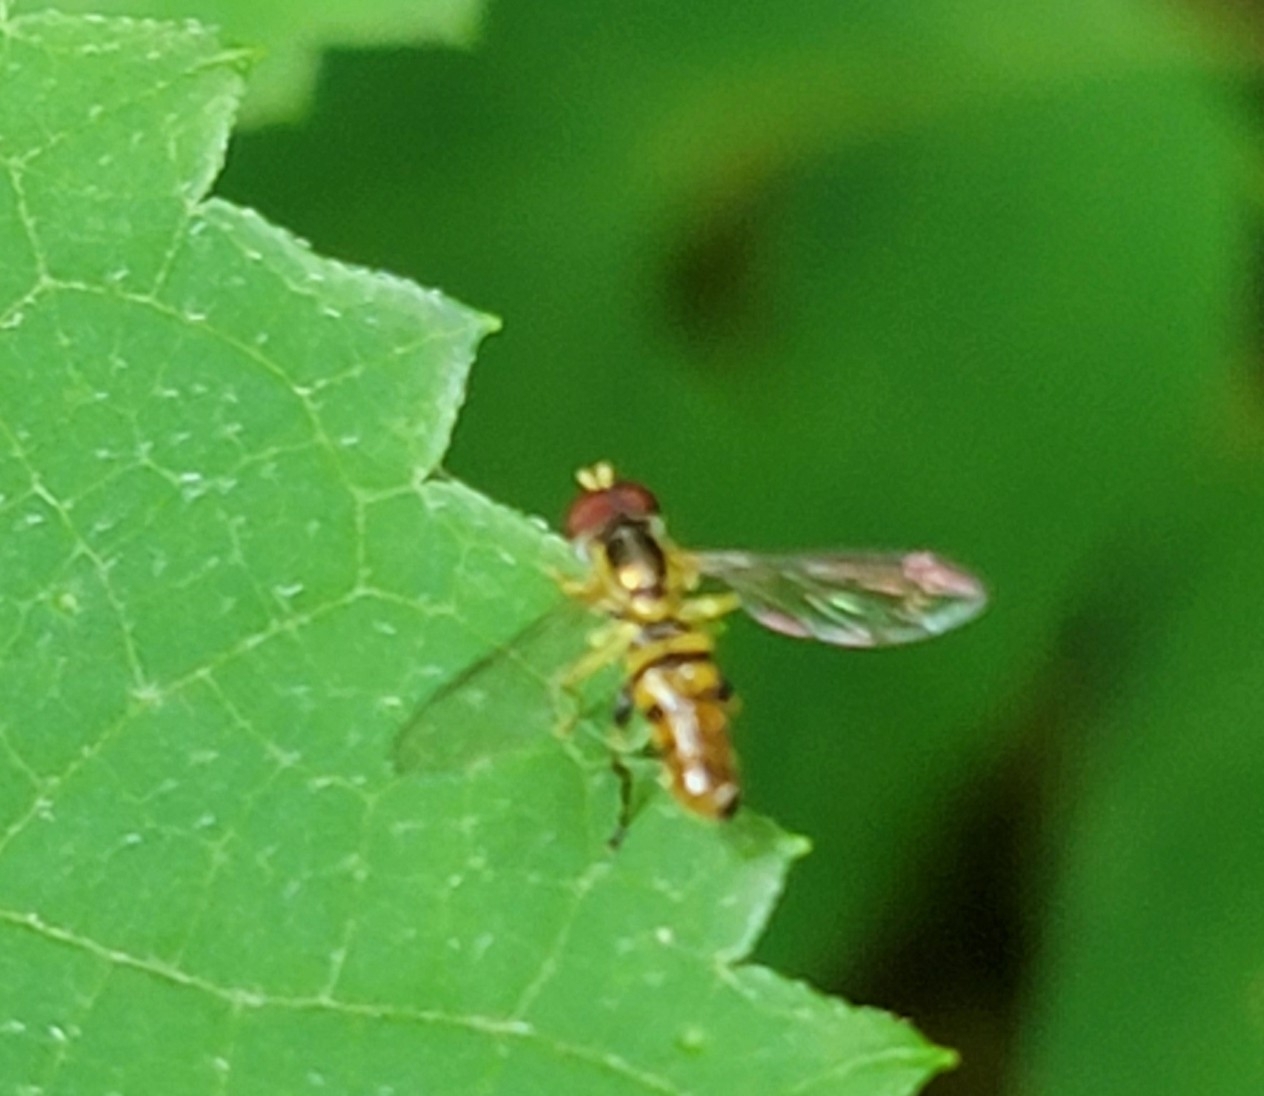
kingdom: Animalia
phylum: Arthropoda
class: Insecta
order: Diptera
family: Syrphidae
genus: Toxomerus
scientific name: Toxomerus geminatus
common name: Eastern calligrapher
